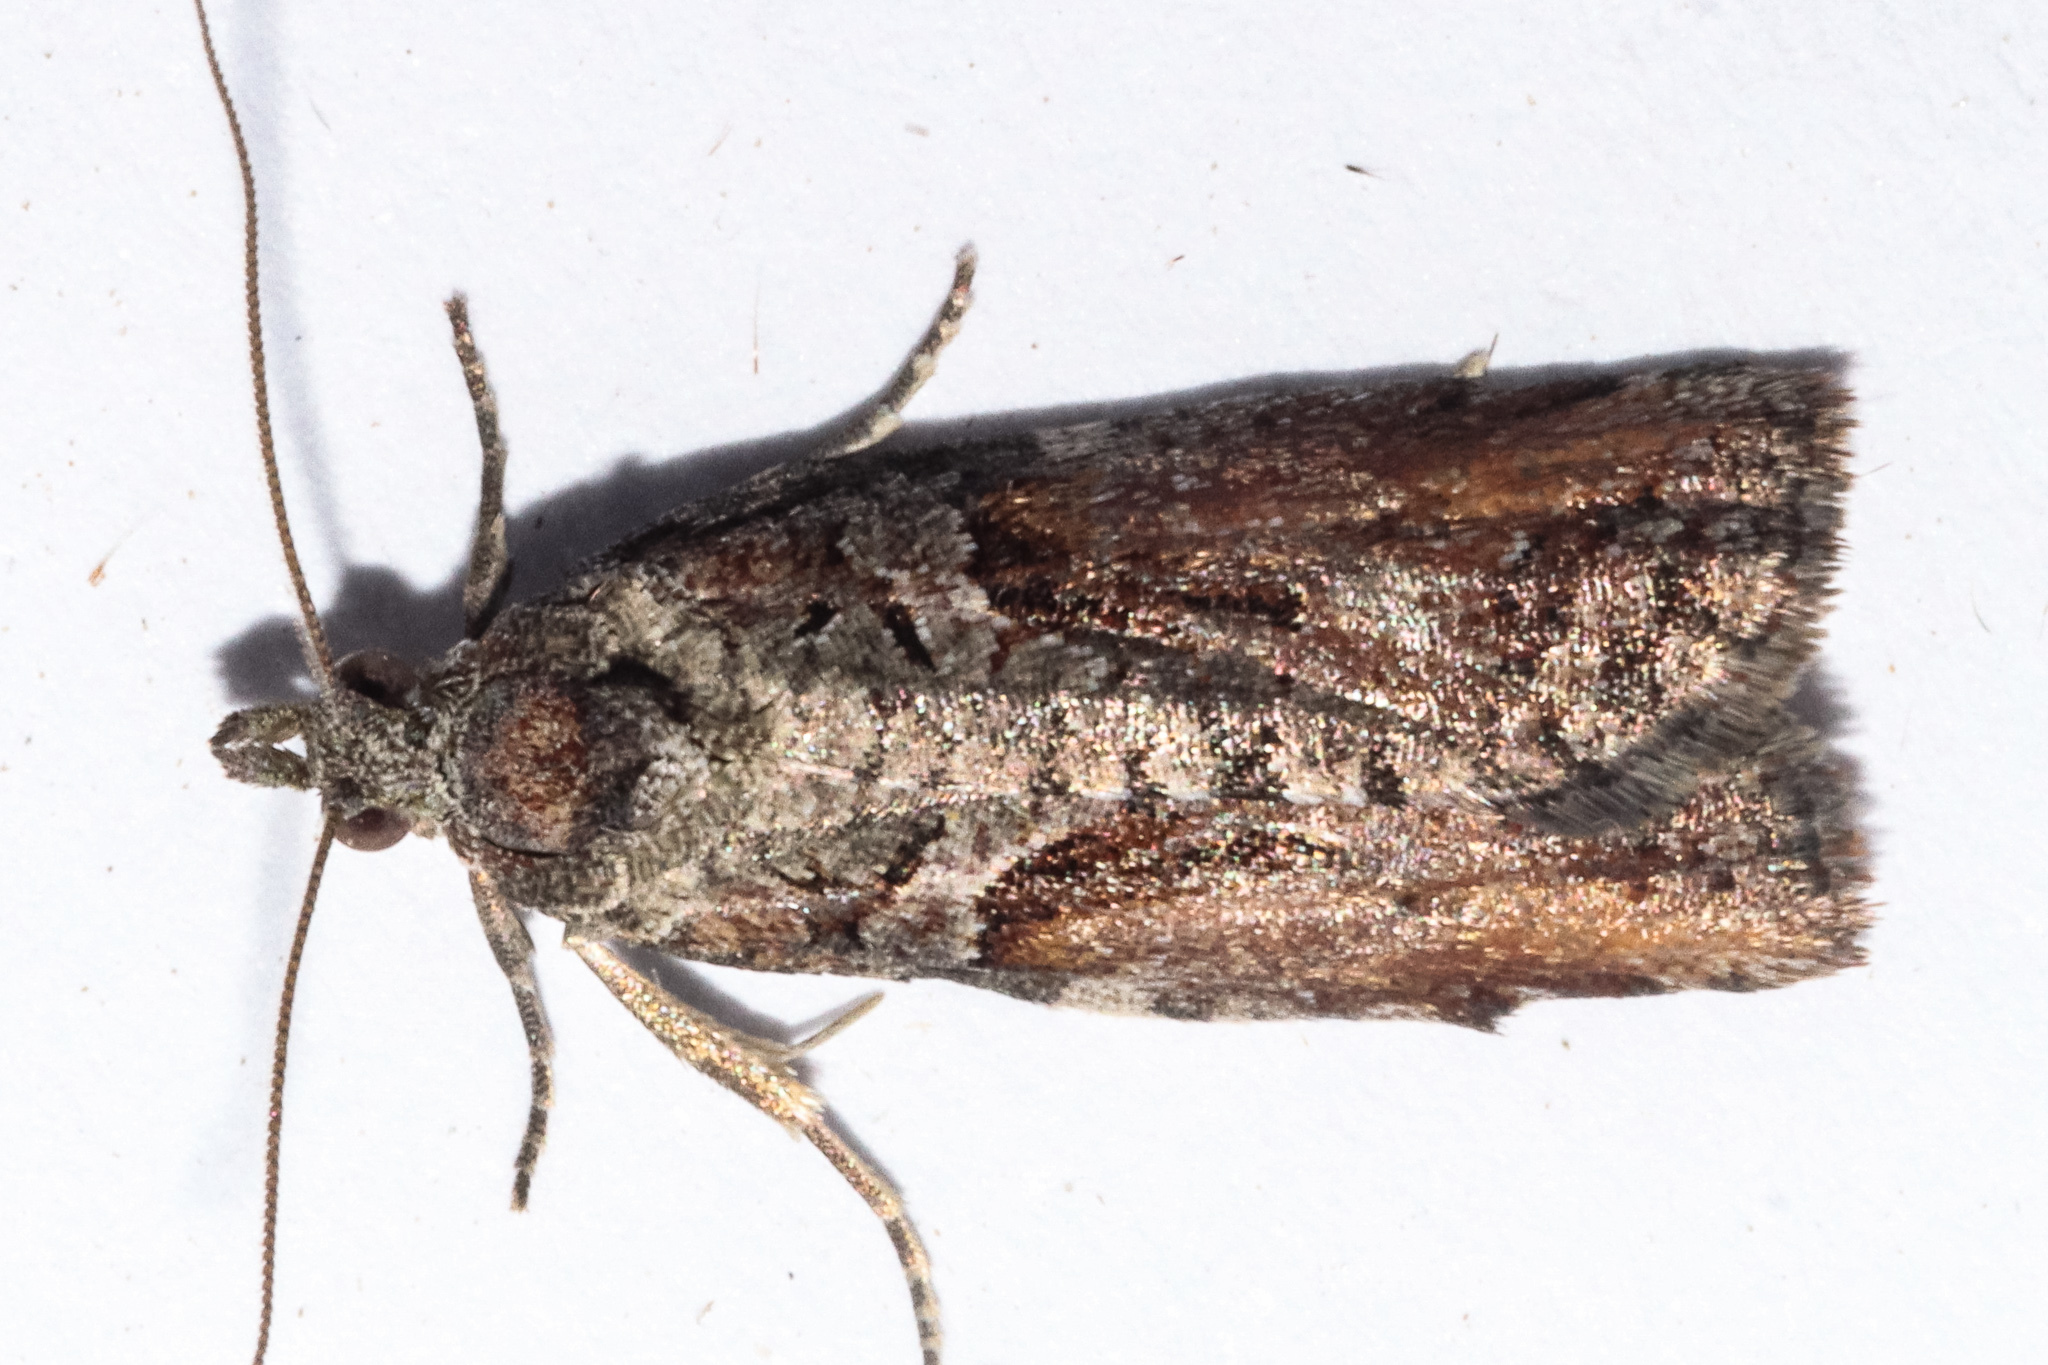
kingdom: Animalia
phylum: Arthropoda
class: Insecta
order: Lepidoptera
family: Tortricidae
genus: Harmologa
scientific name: Harmologa scoliastis
